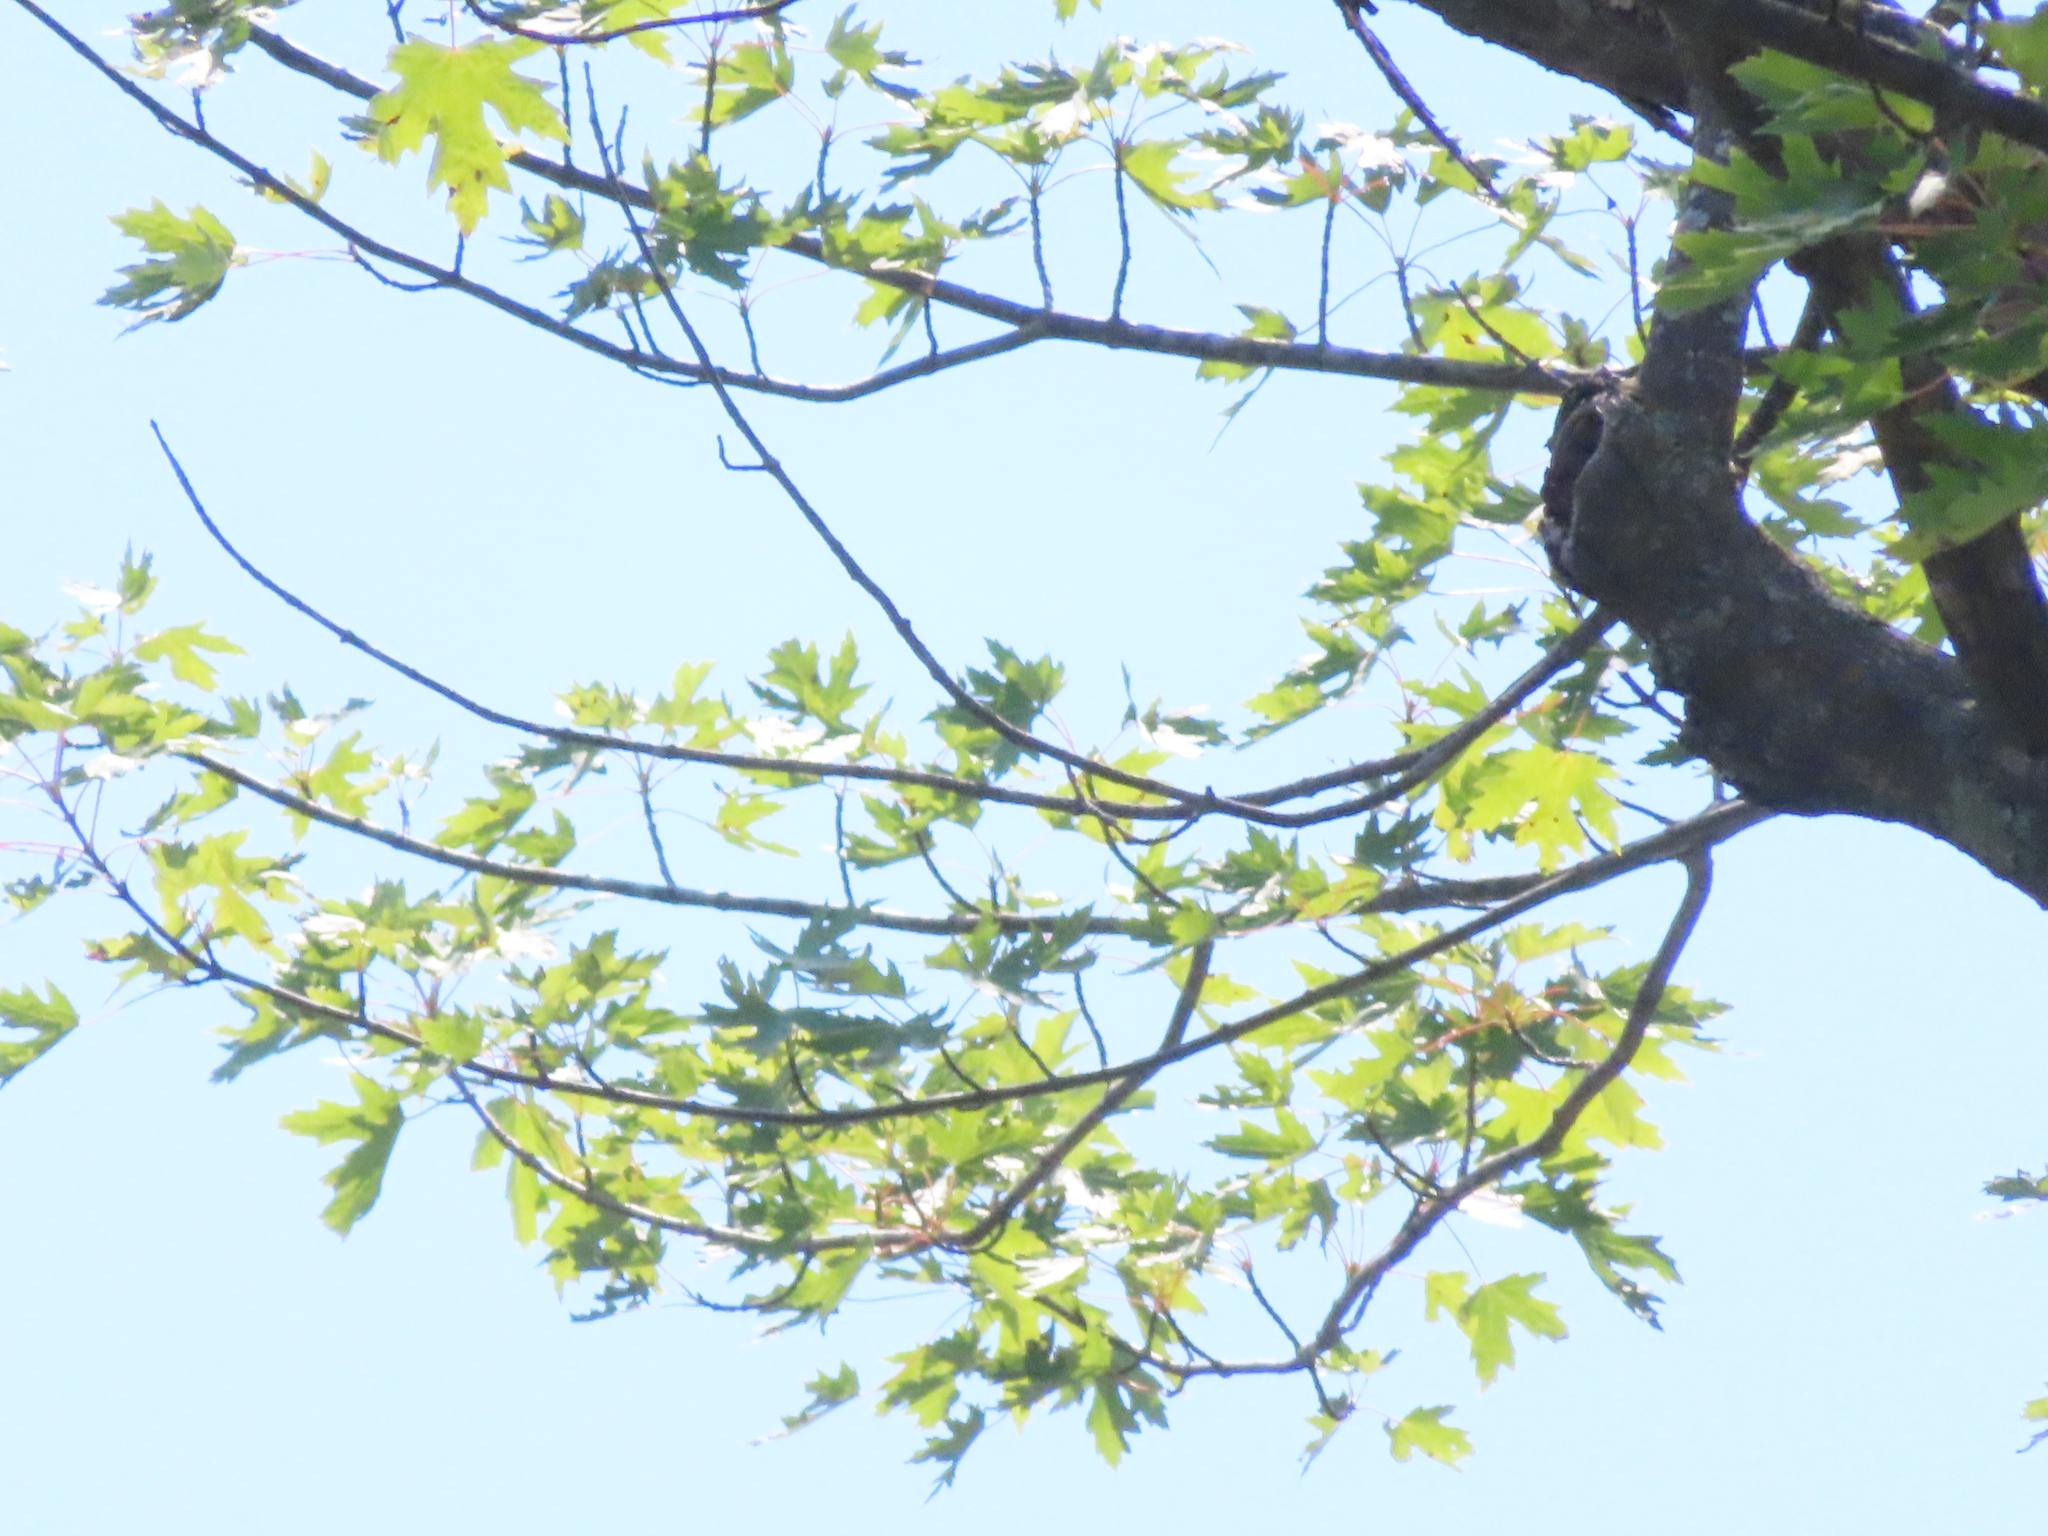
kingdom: Plantae
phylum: Tracheophyta
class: Magnoliopsida
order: Sapindales
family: Sapindaceae
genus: Acer
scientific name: Acer saccharinum
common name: Silver maple
